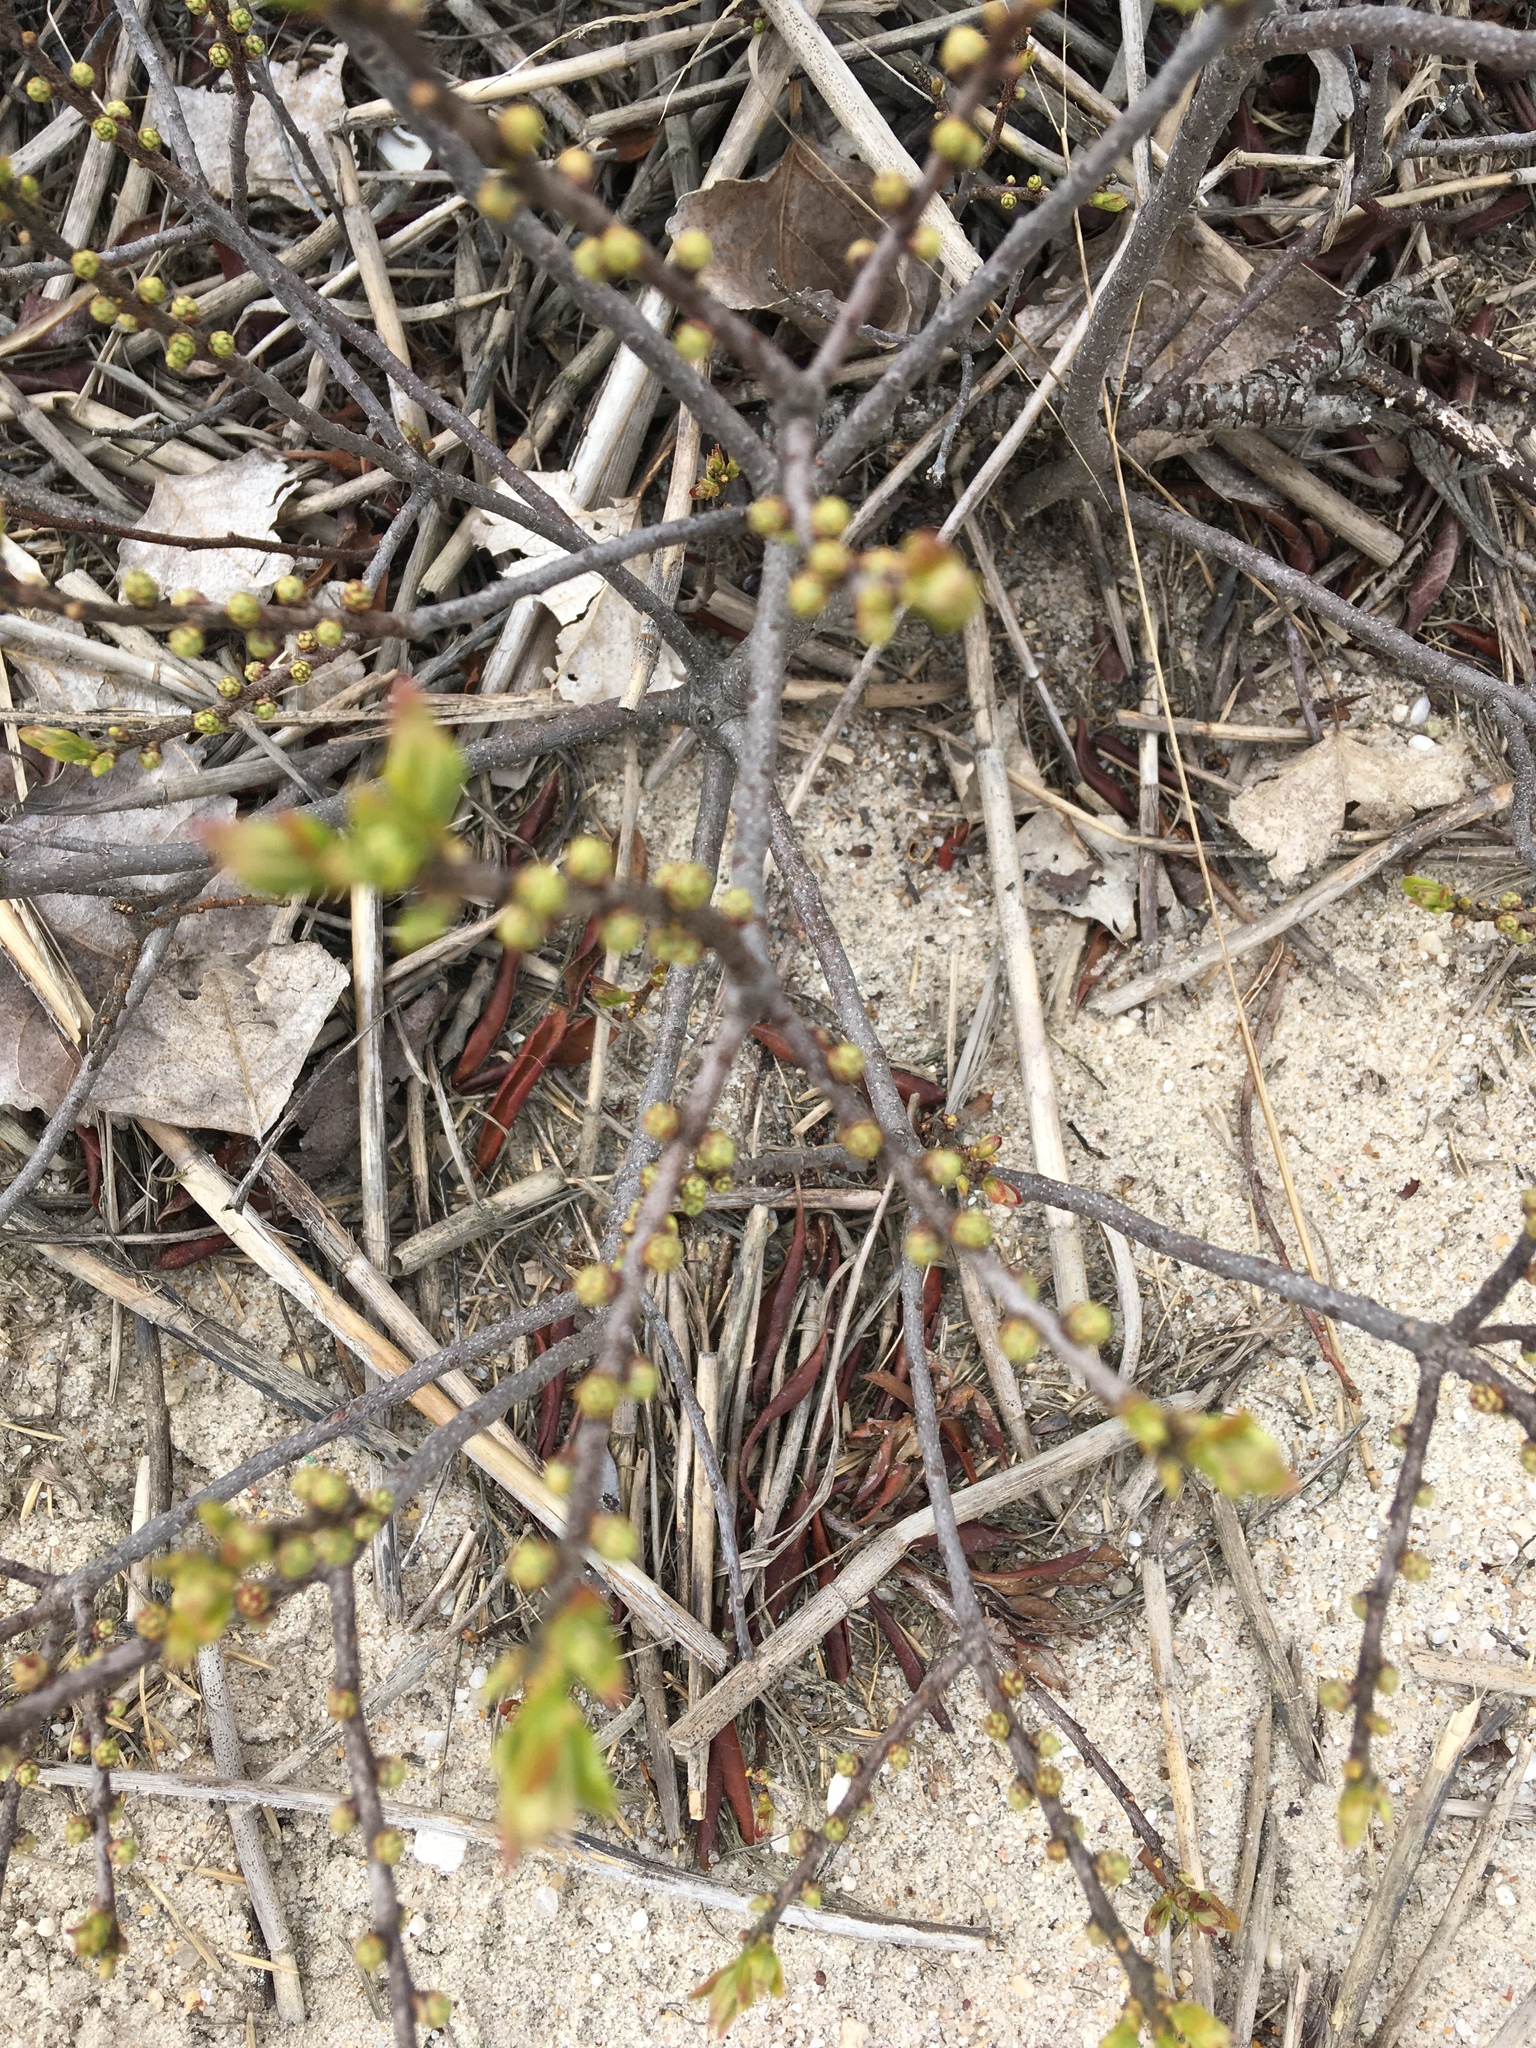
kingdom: Plantae
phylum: Tracheophyta
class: Magnoliopsida
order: Fagales
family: Myricaceae
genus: Morella
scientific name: Morella pensylvanica
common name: Northern bayberry
